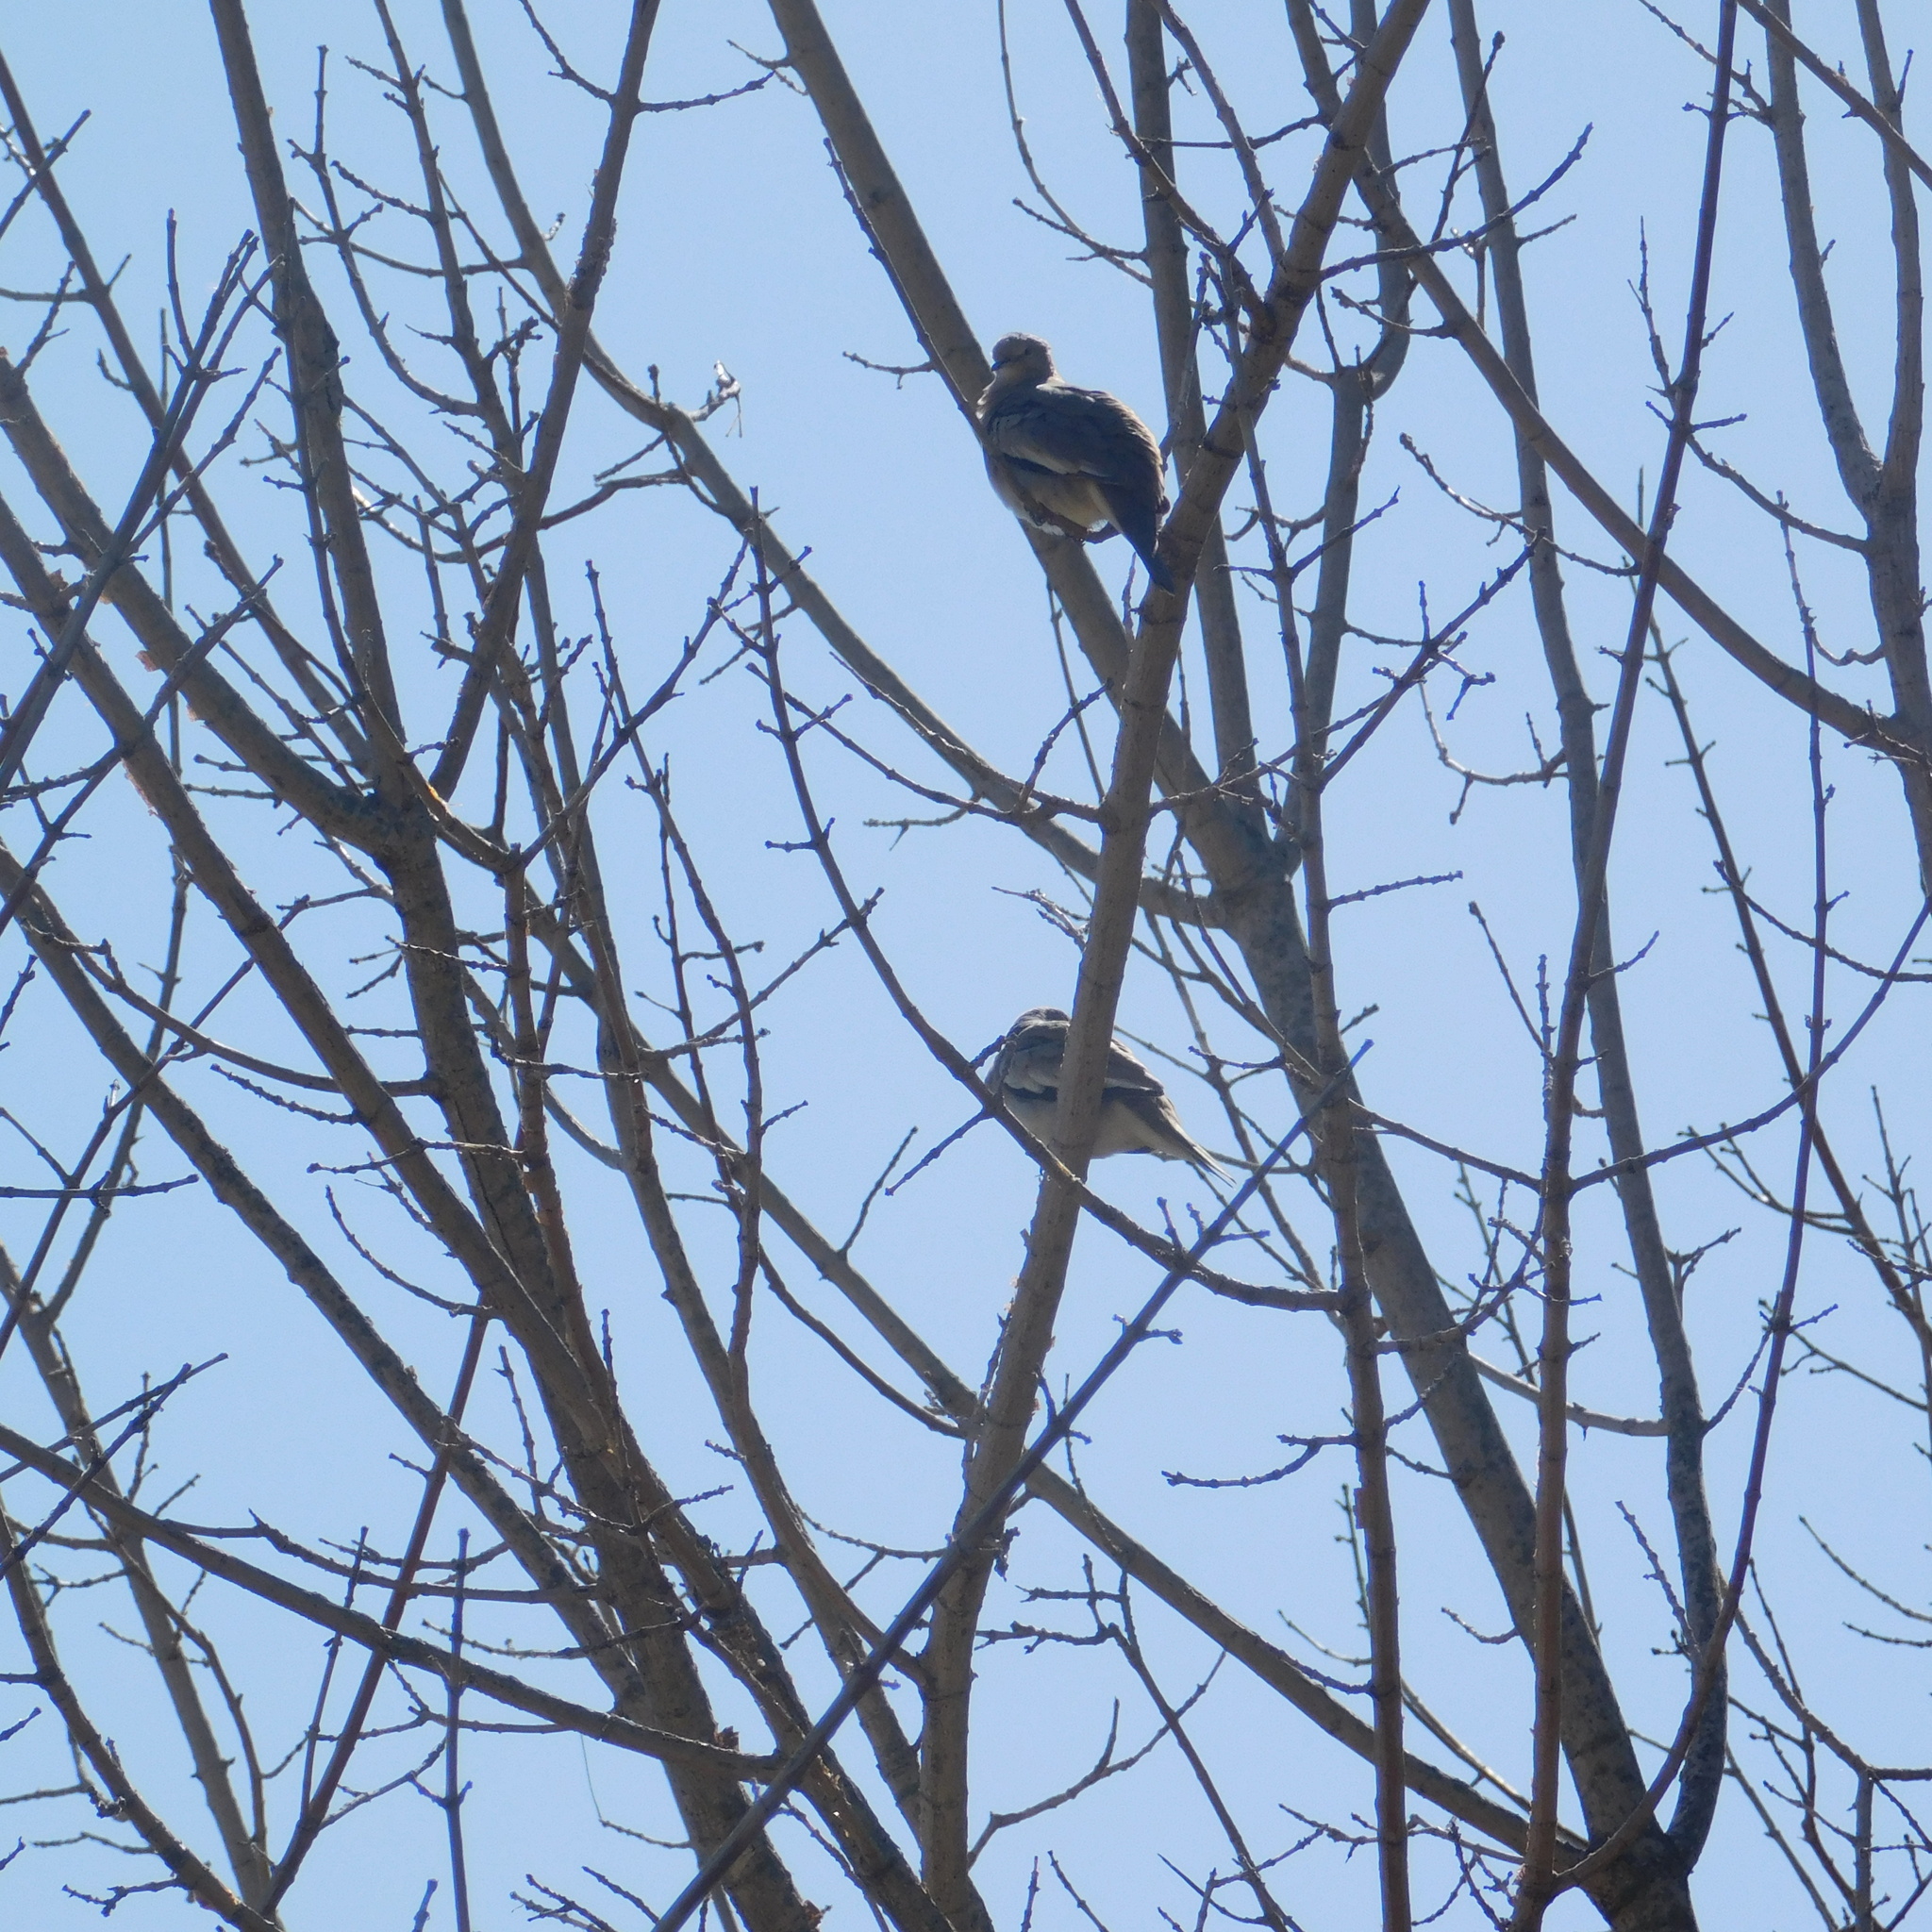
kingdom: Animalia
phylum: Chordata
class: Aves
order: Columbiformes
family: Columbidae
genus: Columbina
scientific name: Columbina picui
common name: Picui ground dove
